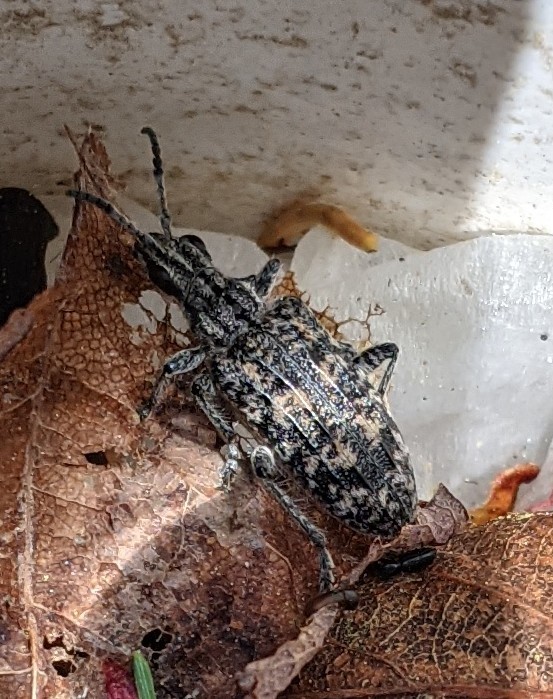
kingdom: Animalia
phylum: Arthropoda
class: Insecta
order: Coleoptera
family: Cerambycidae
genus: Rhagium
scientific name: Rhagium inquisitor
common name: Ribbed pine borer
